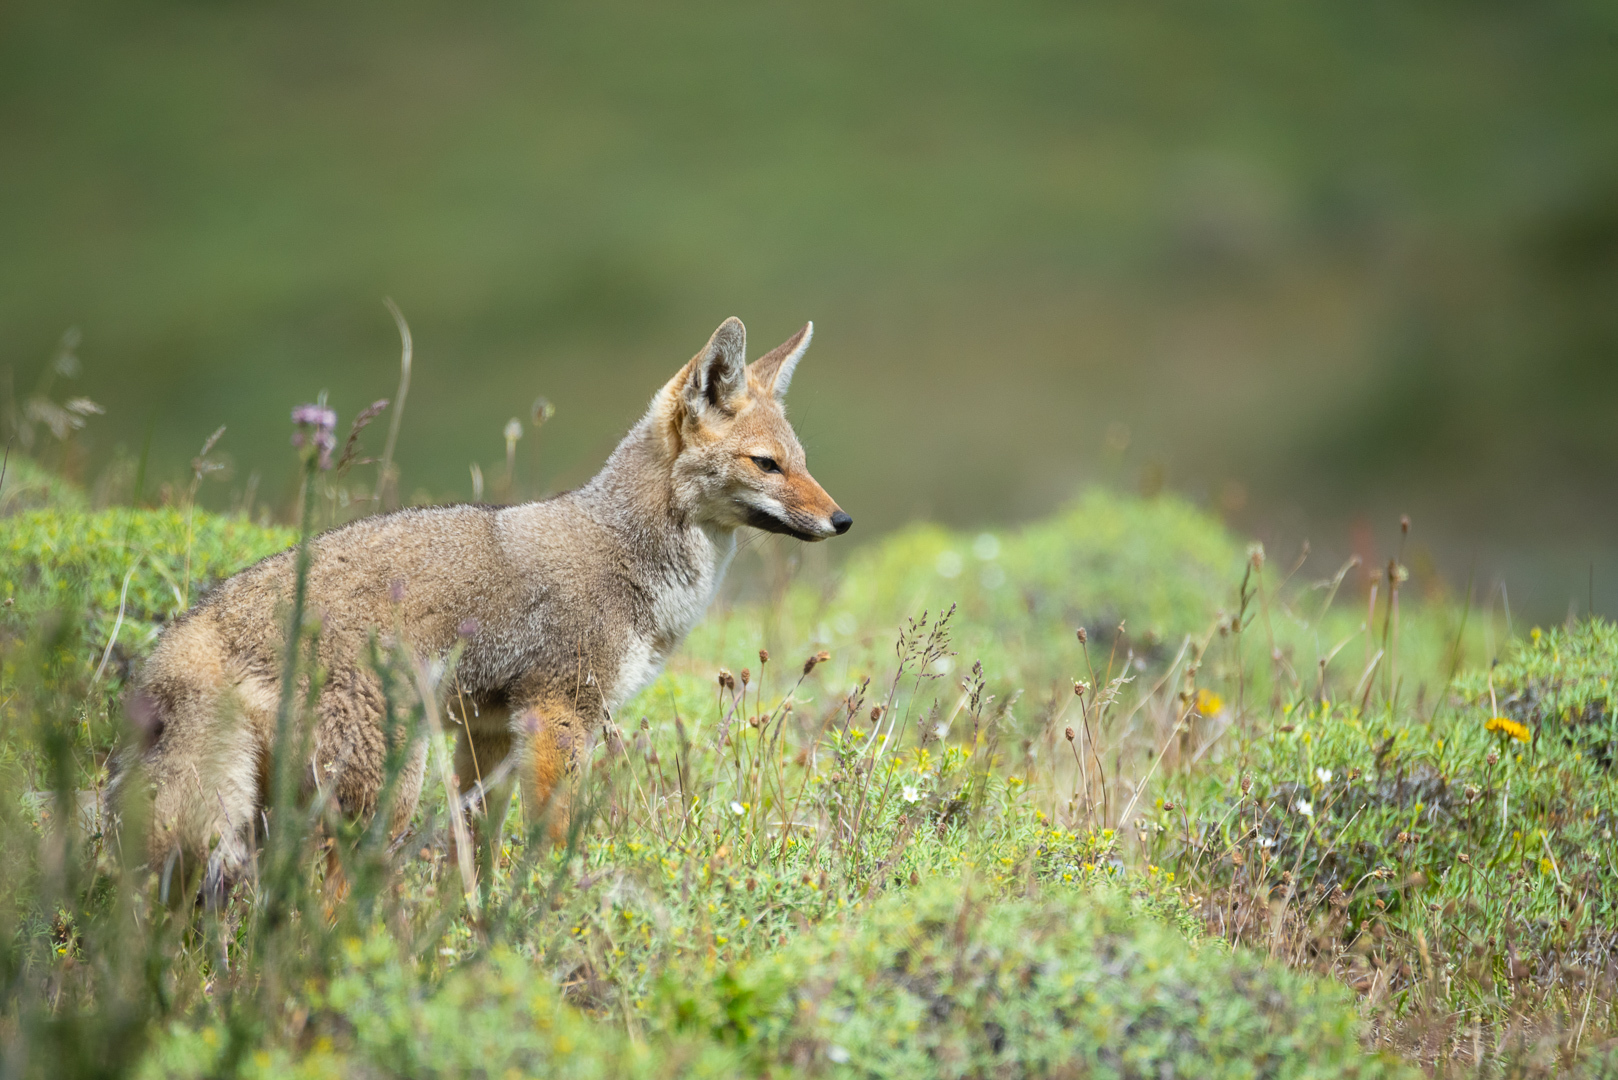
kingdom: Animalia
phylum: Chordata
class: Mammalia
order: Carnivora
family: Canidae
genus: Lycalopex
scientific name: Lycalopex gymnocercus
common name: Pampas fox
